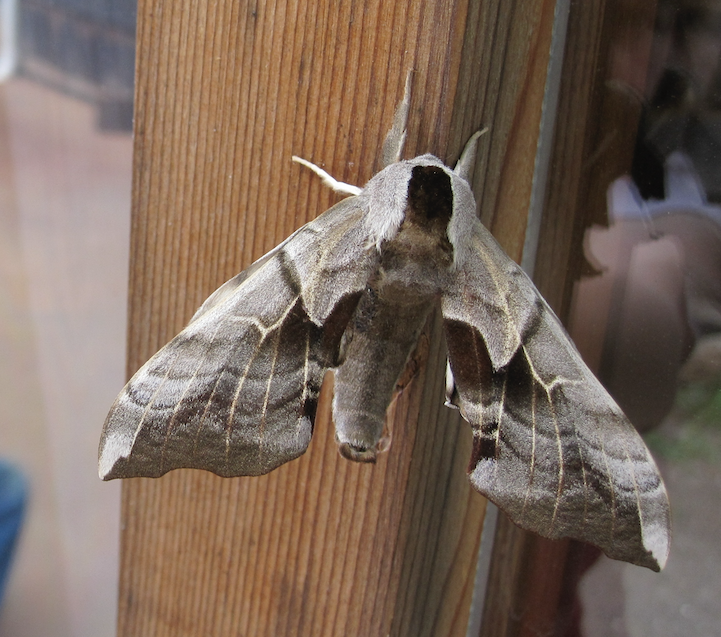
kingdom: Animalia
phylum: Arthropoda
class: Insecta
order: Lepidoptera
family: Sphingidae
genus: Smerinthus
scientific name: Smerinthus cerisyi
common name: Cerisy's sphinx moth
